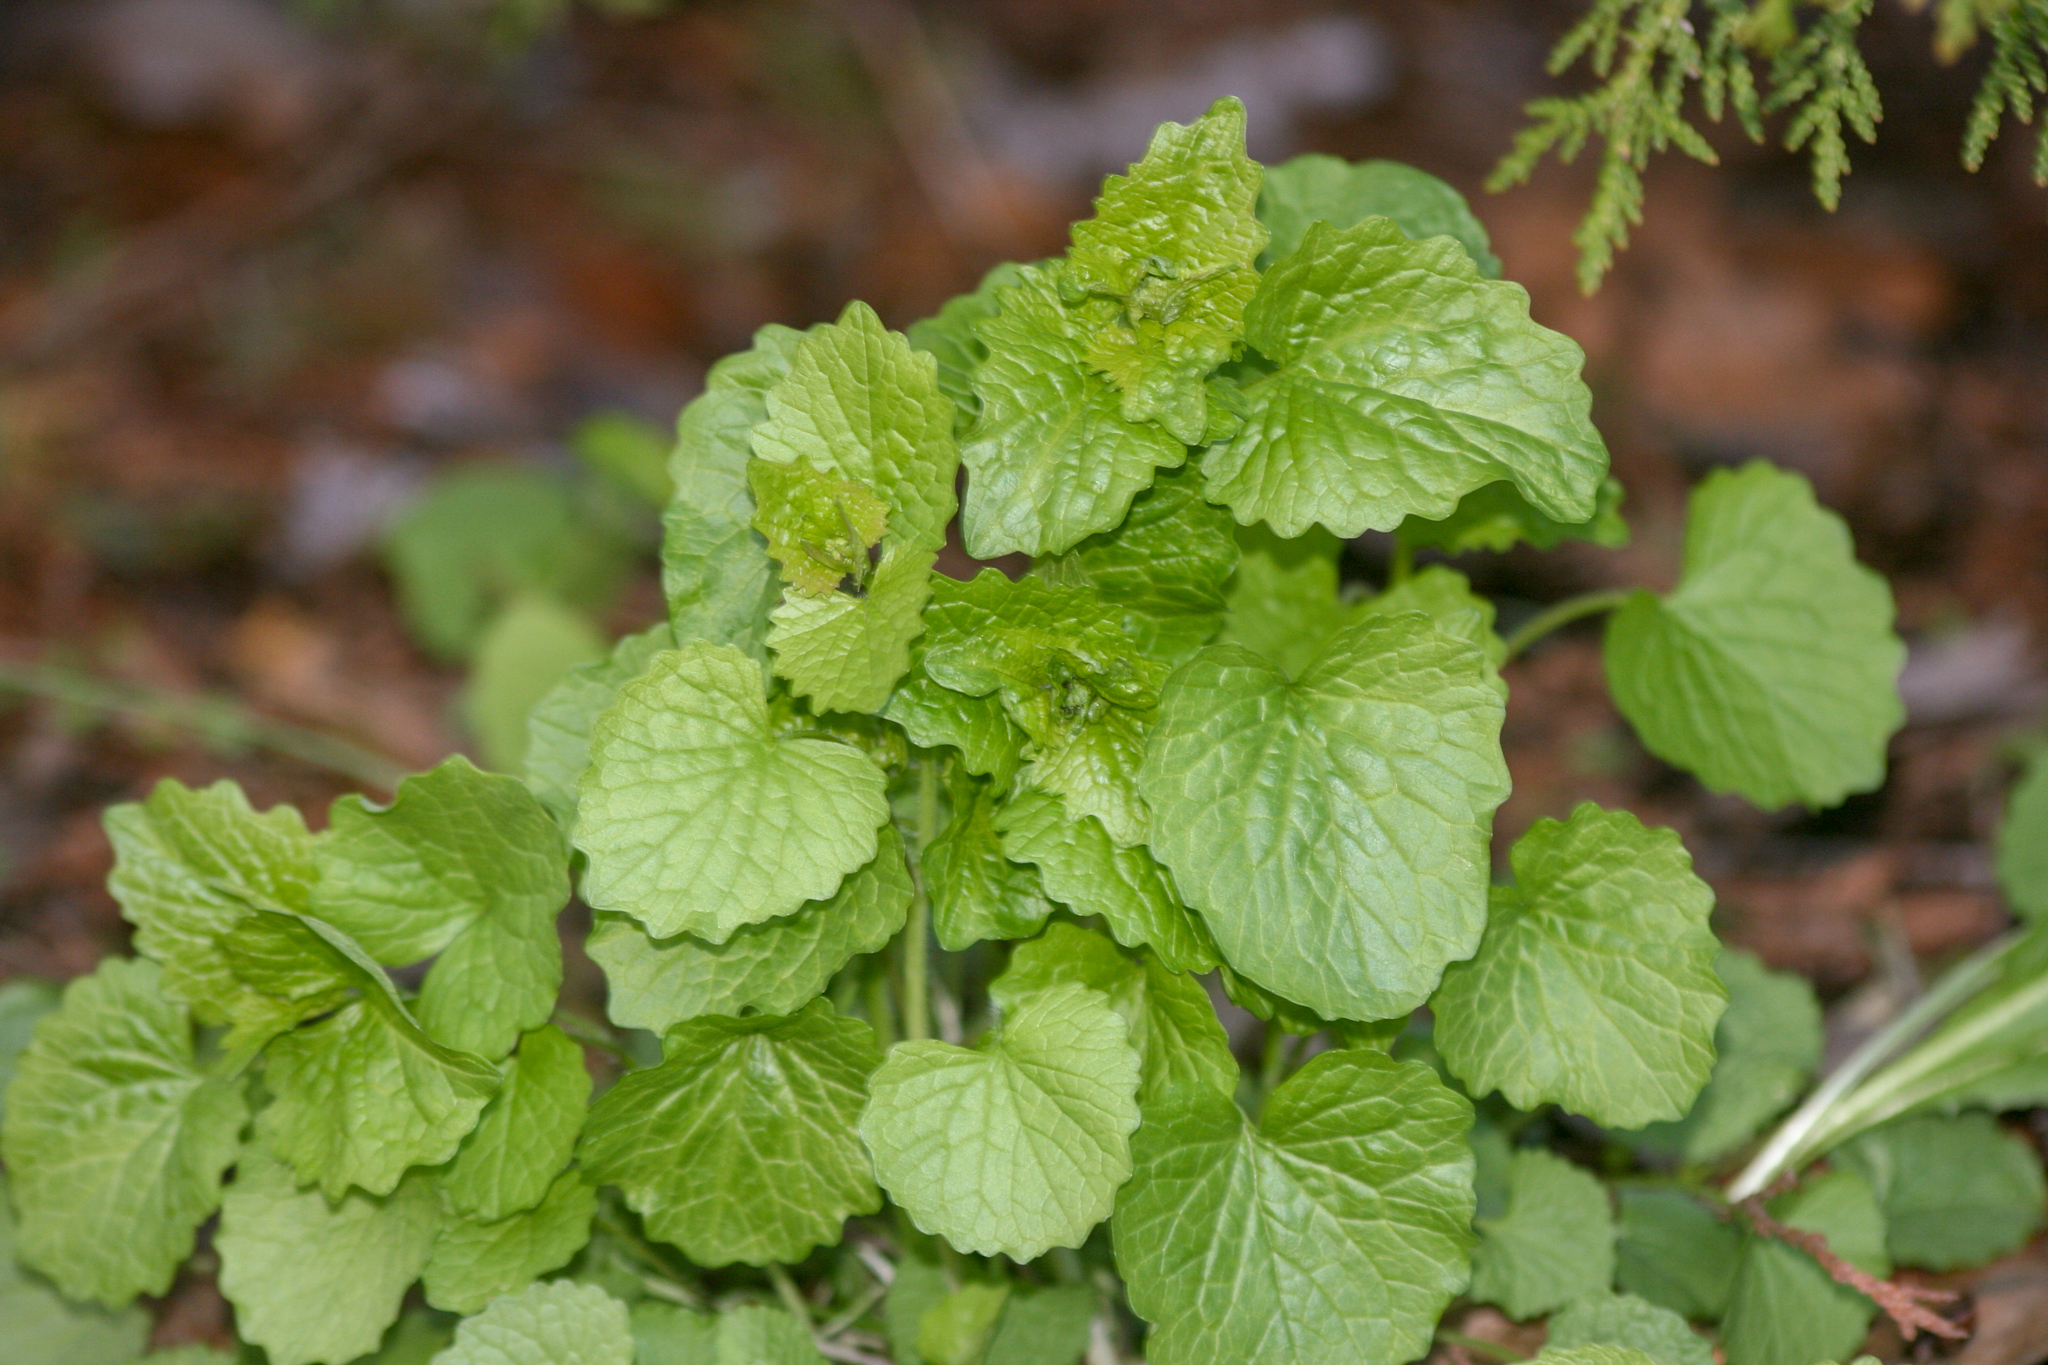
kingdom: Plantae
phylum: Tracheophyta
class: Magnoliopsida
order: Brassicales
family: Brassicaceae
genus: Alliaria
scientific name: Alliaria petiolata
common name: Garlic mustard
